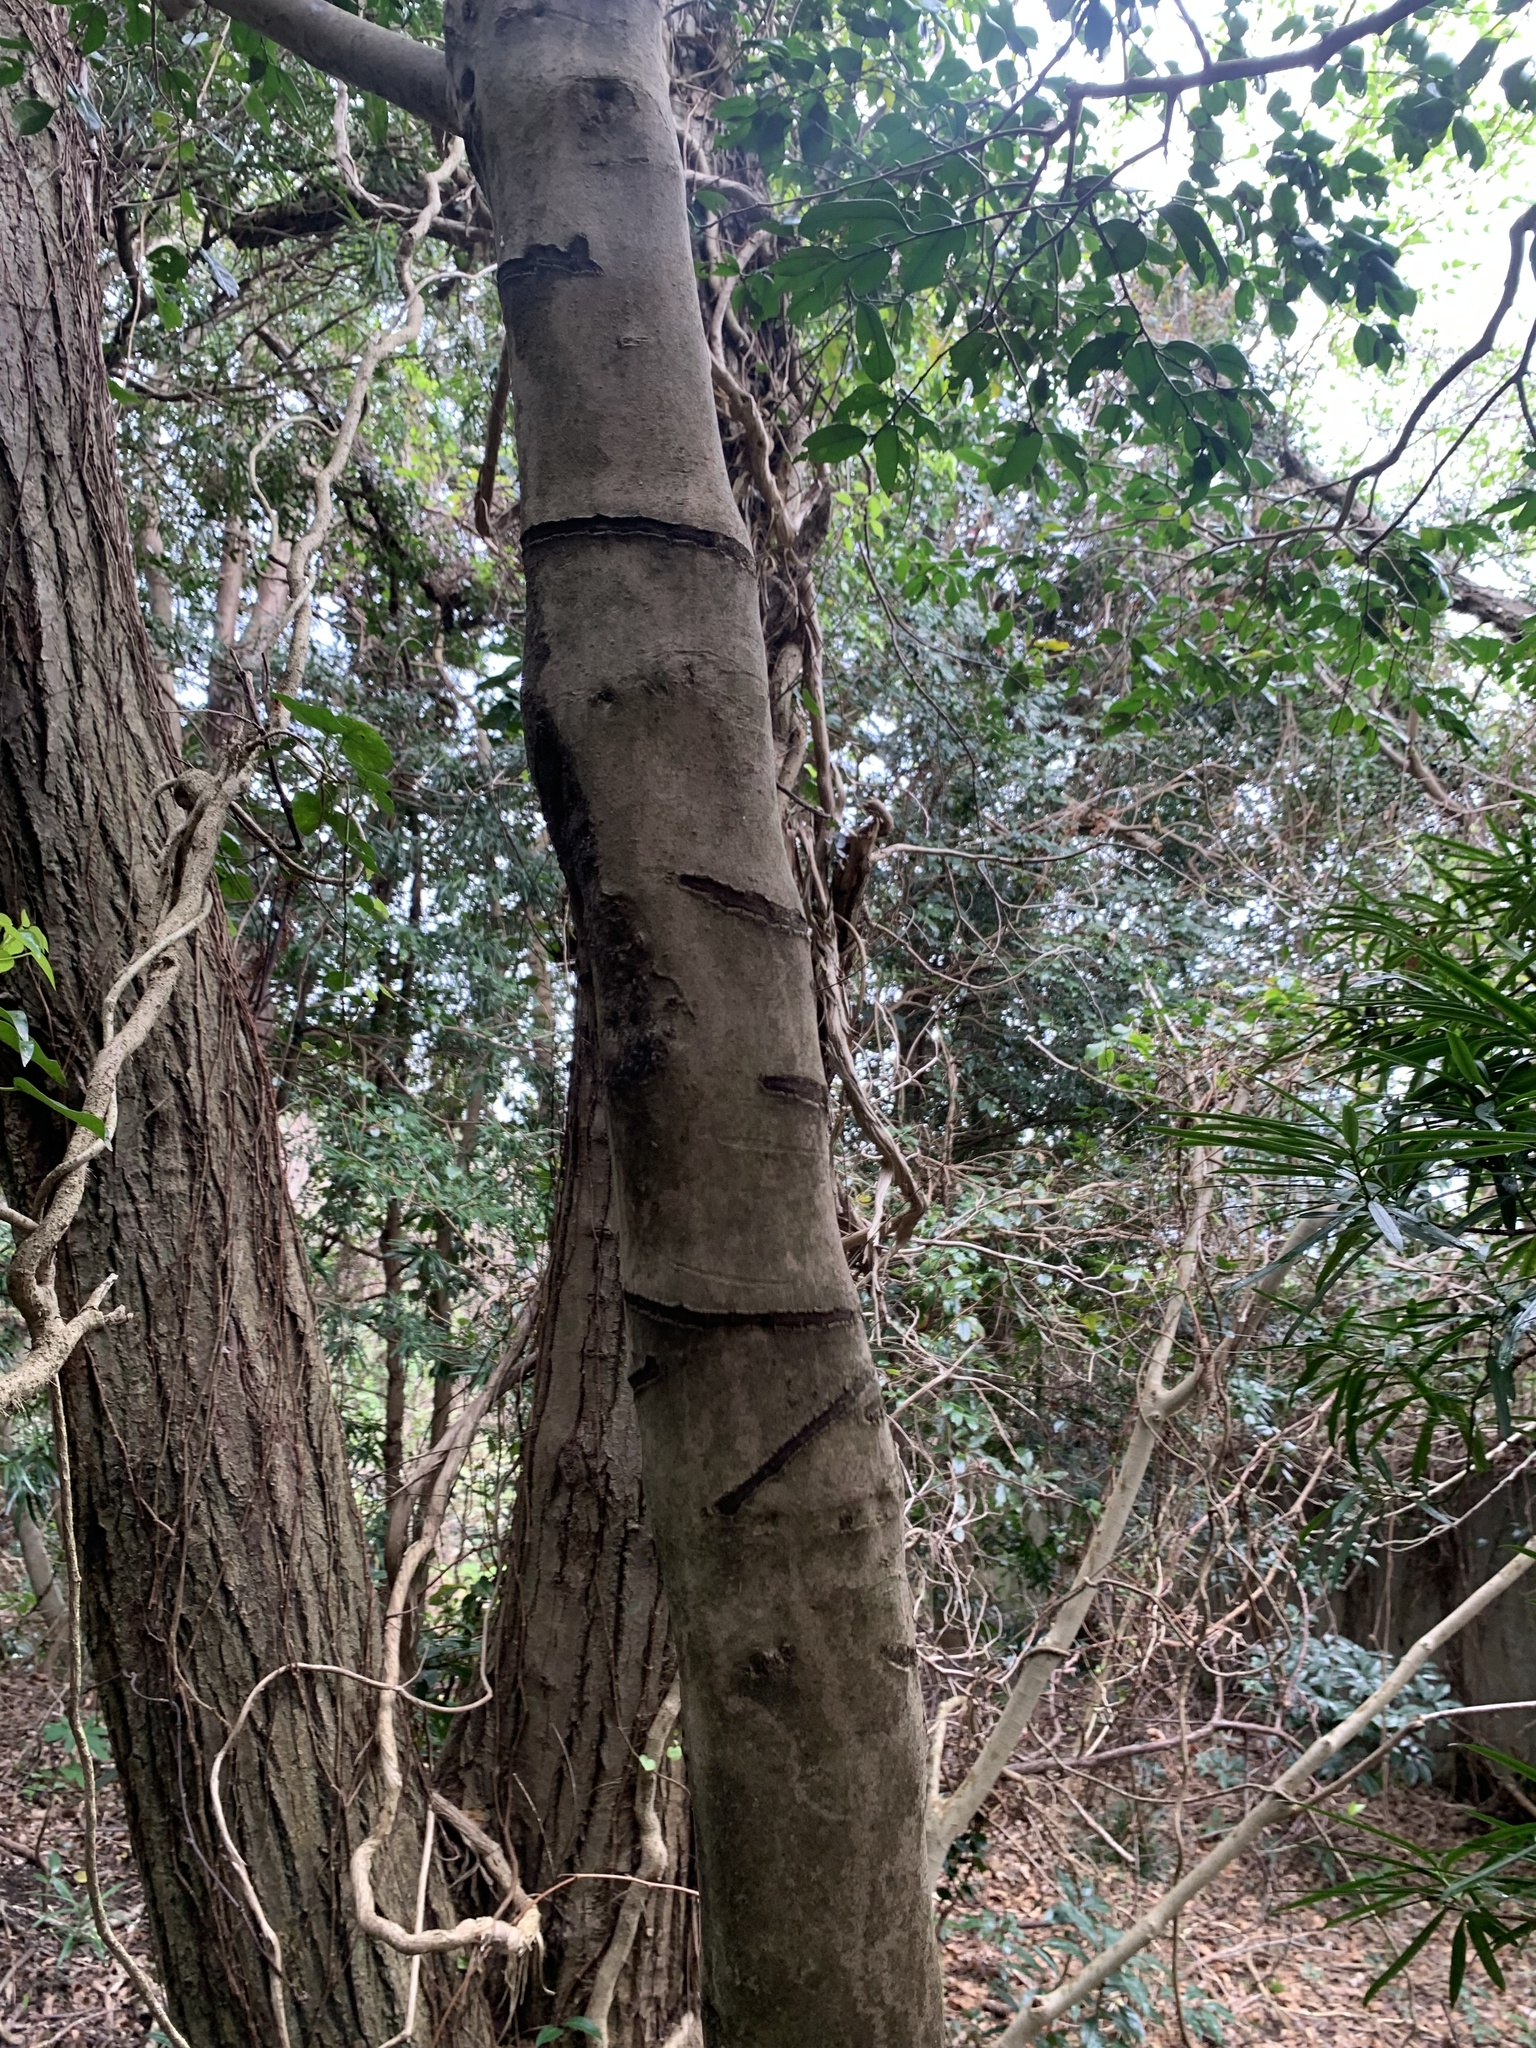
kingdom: Animalia
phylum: Chordata
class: Mammalia
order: Rodentia
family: Sciuridae
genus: Callosciurus
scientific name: Callosciurus erythraeus
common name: Pallas's squirrel
